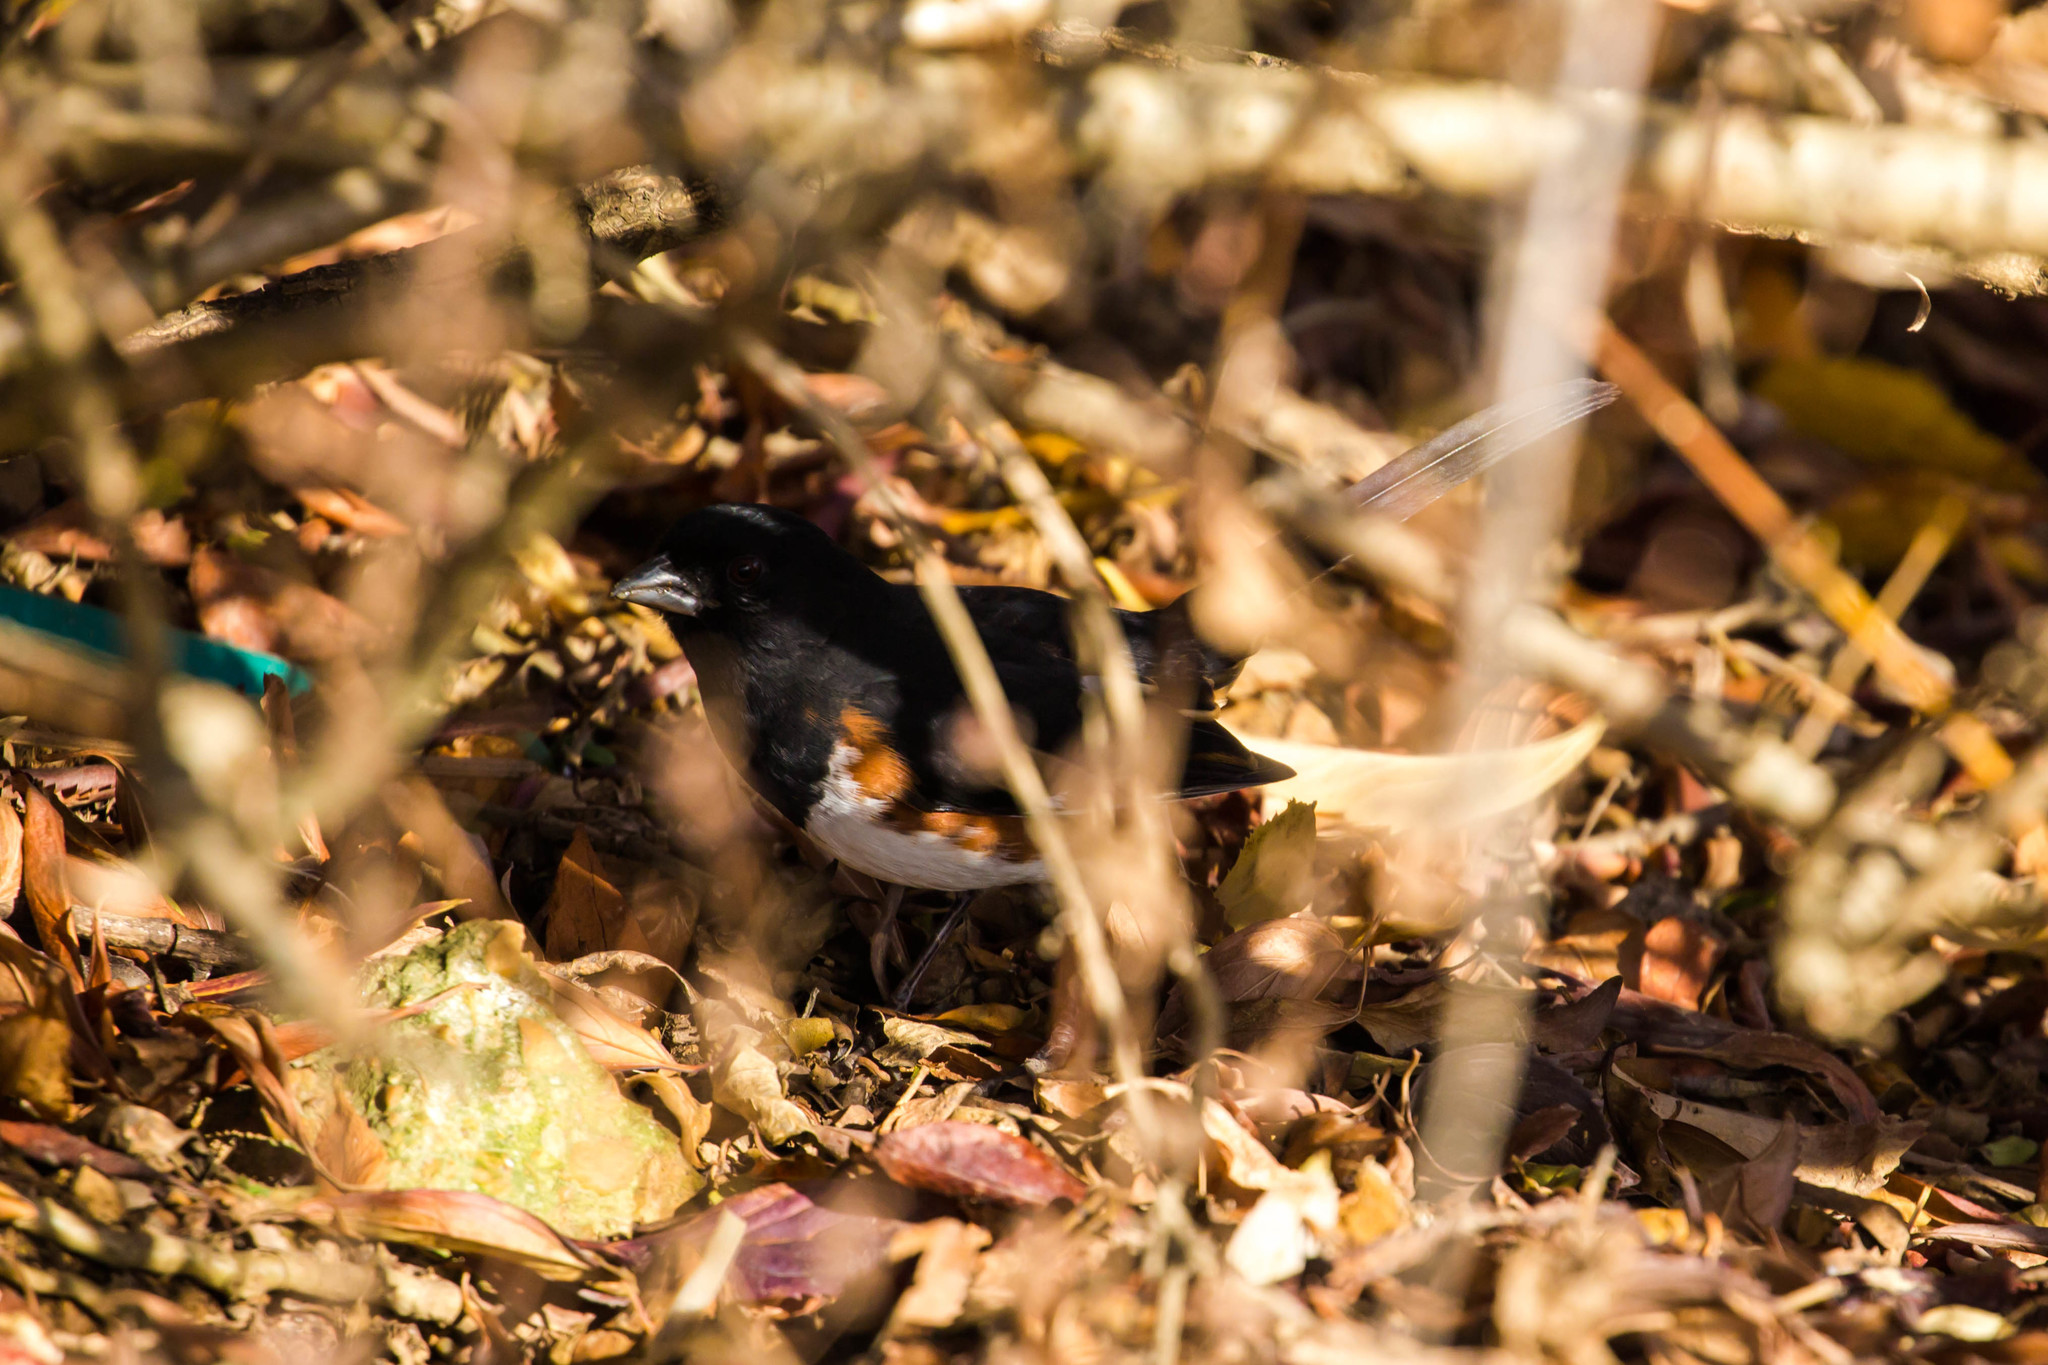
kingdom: Animalia
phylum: Chordata
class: Aves
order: Passeriformes
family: Passerellidae
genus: Pipilo
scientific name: Pipilo erythrophthalmus
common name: Eastern towhee
